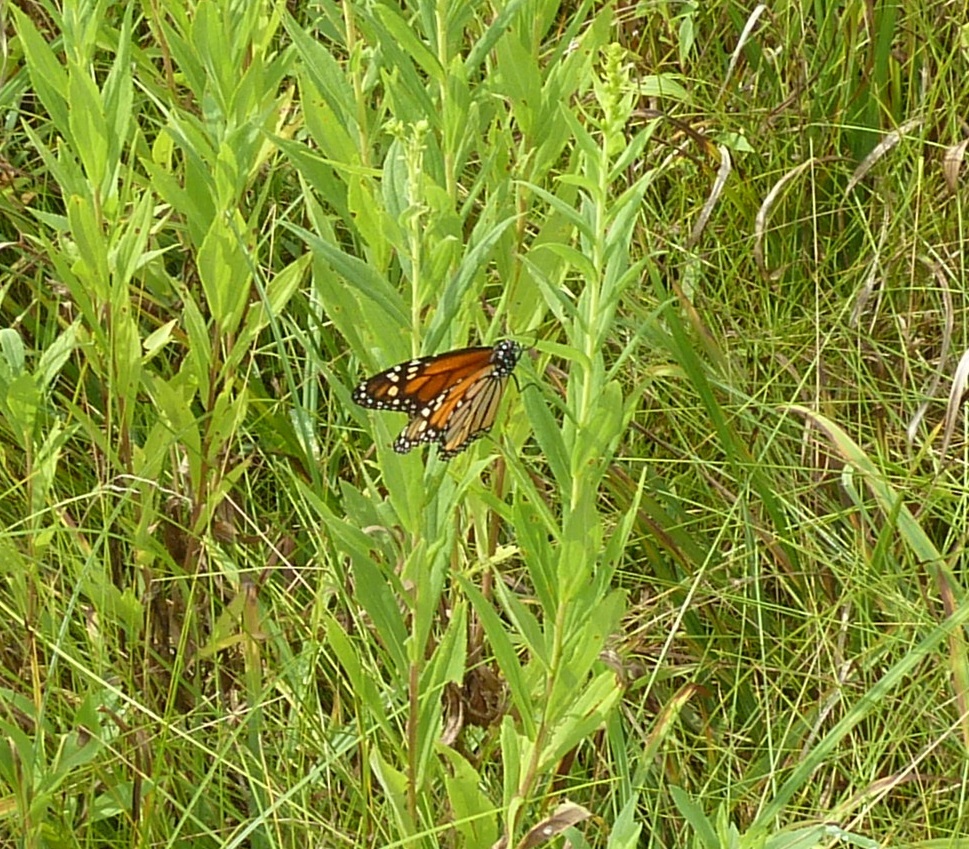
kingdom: Animalia
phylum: Arthropoda
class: Insecta
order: Lepidoptera
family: Nymphalidae
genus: Danaus
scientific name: Danaus plexippus
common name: Monarch
